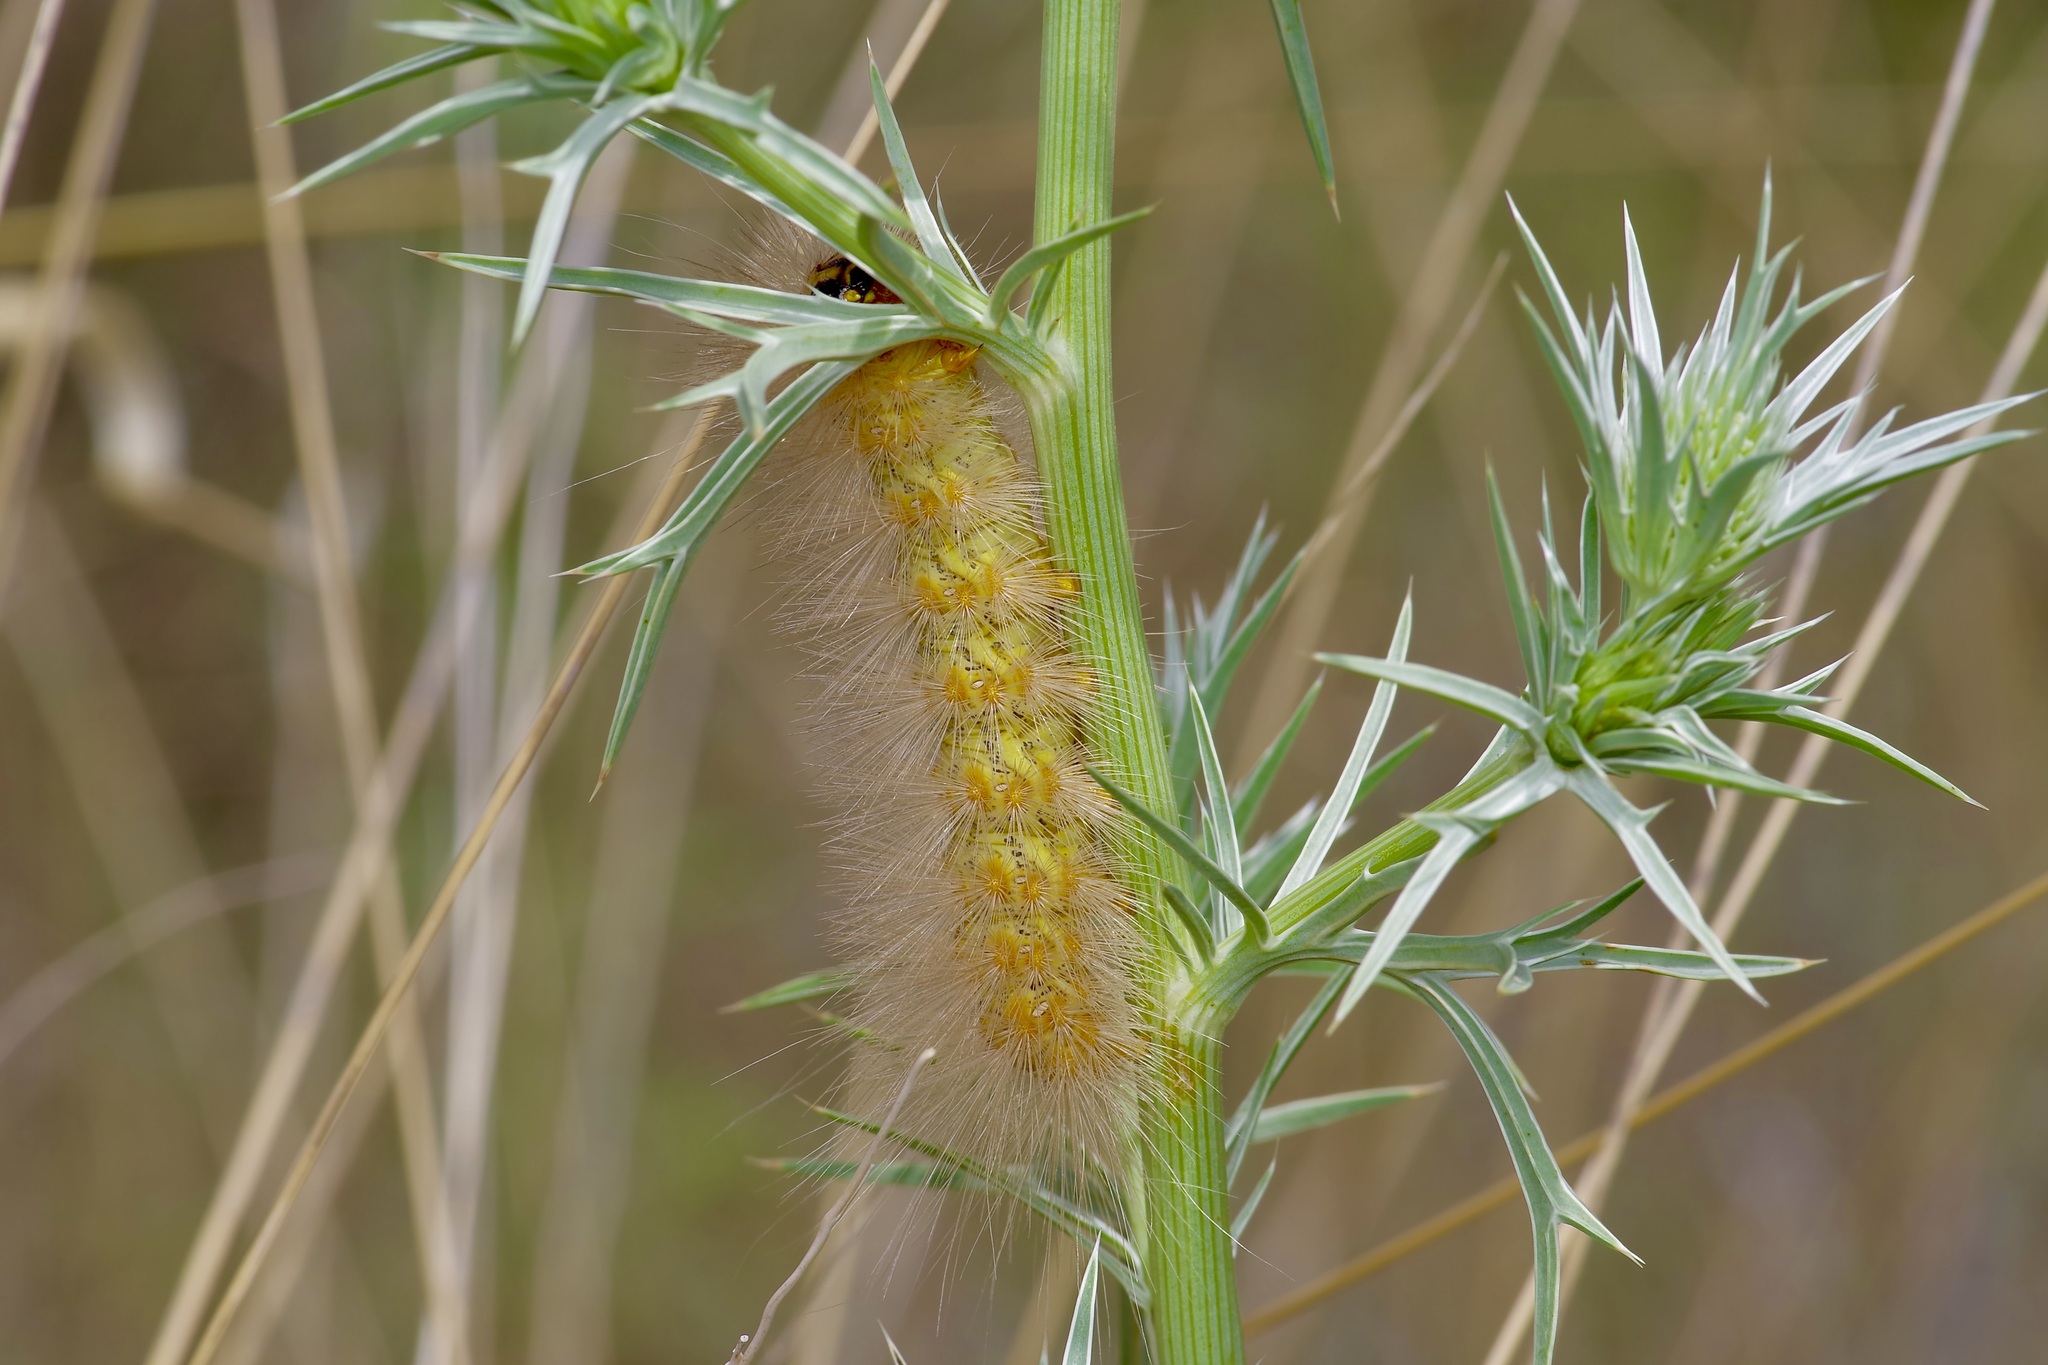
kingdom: Animalia
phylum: Arthropoda
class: Insecta
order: Lepidoptera
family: Erebidae
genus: Estigmene
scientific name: Estigmene
